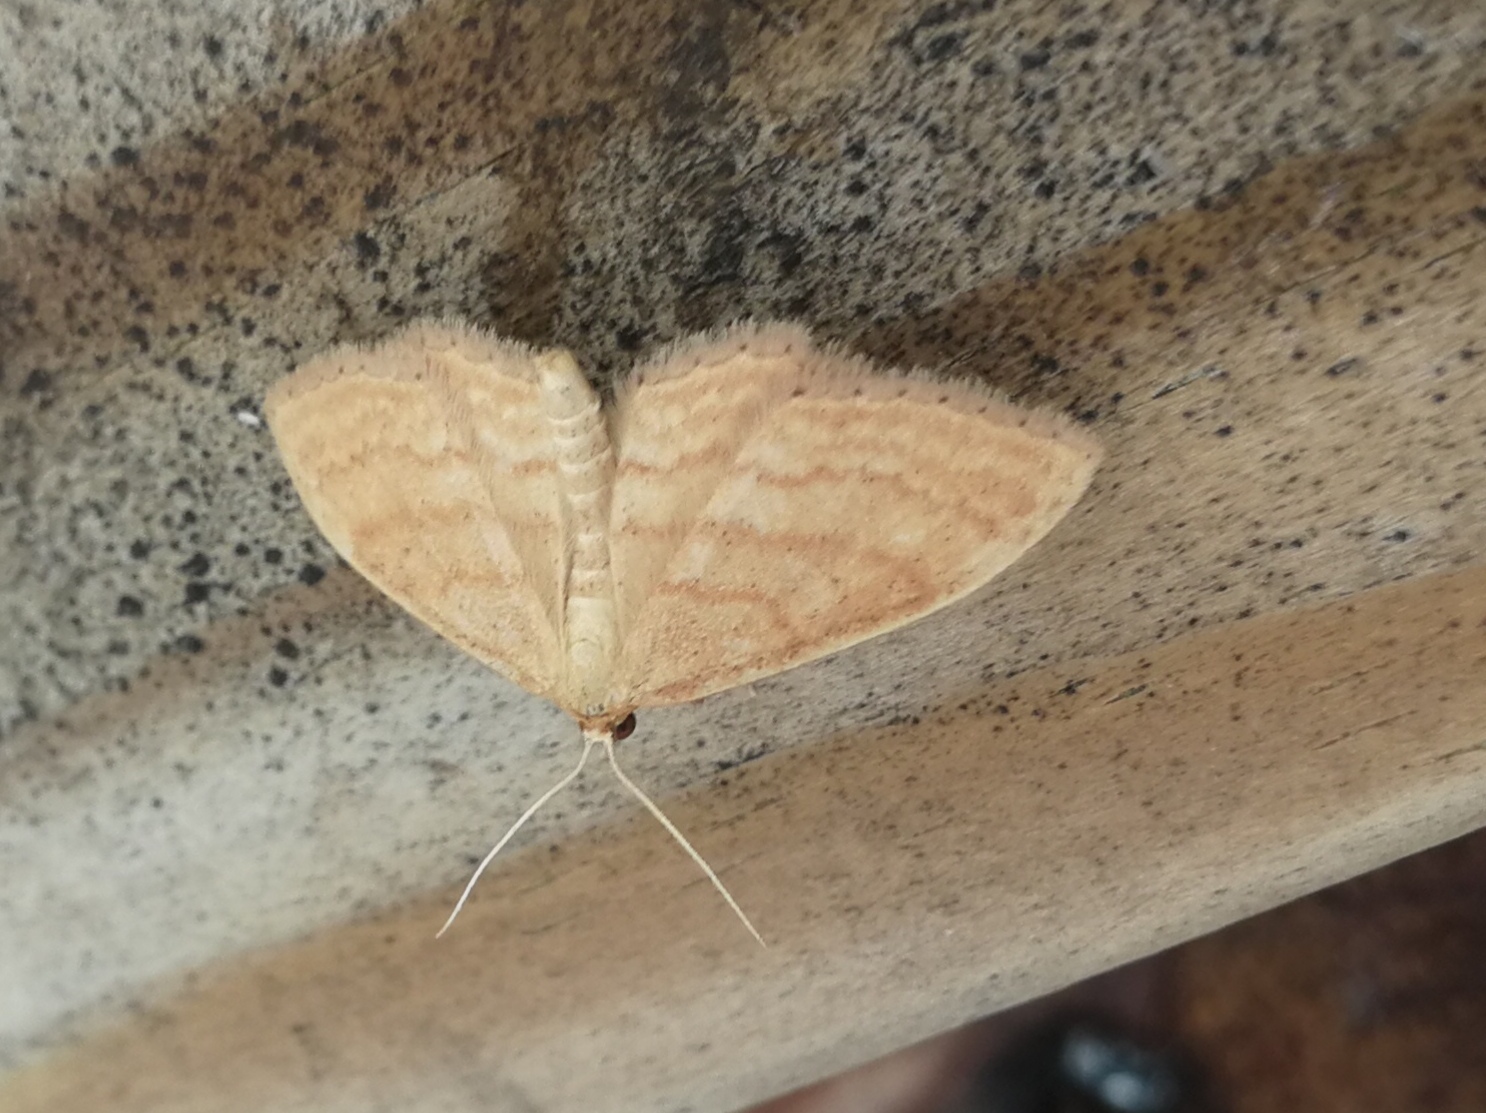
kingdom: Animalia
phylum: Arthropoda
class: Insecta
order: Lepidoptera
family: Geometridae
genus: Idaea
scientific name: Idaea ochrata
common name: Bright wave
